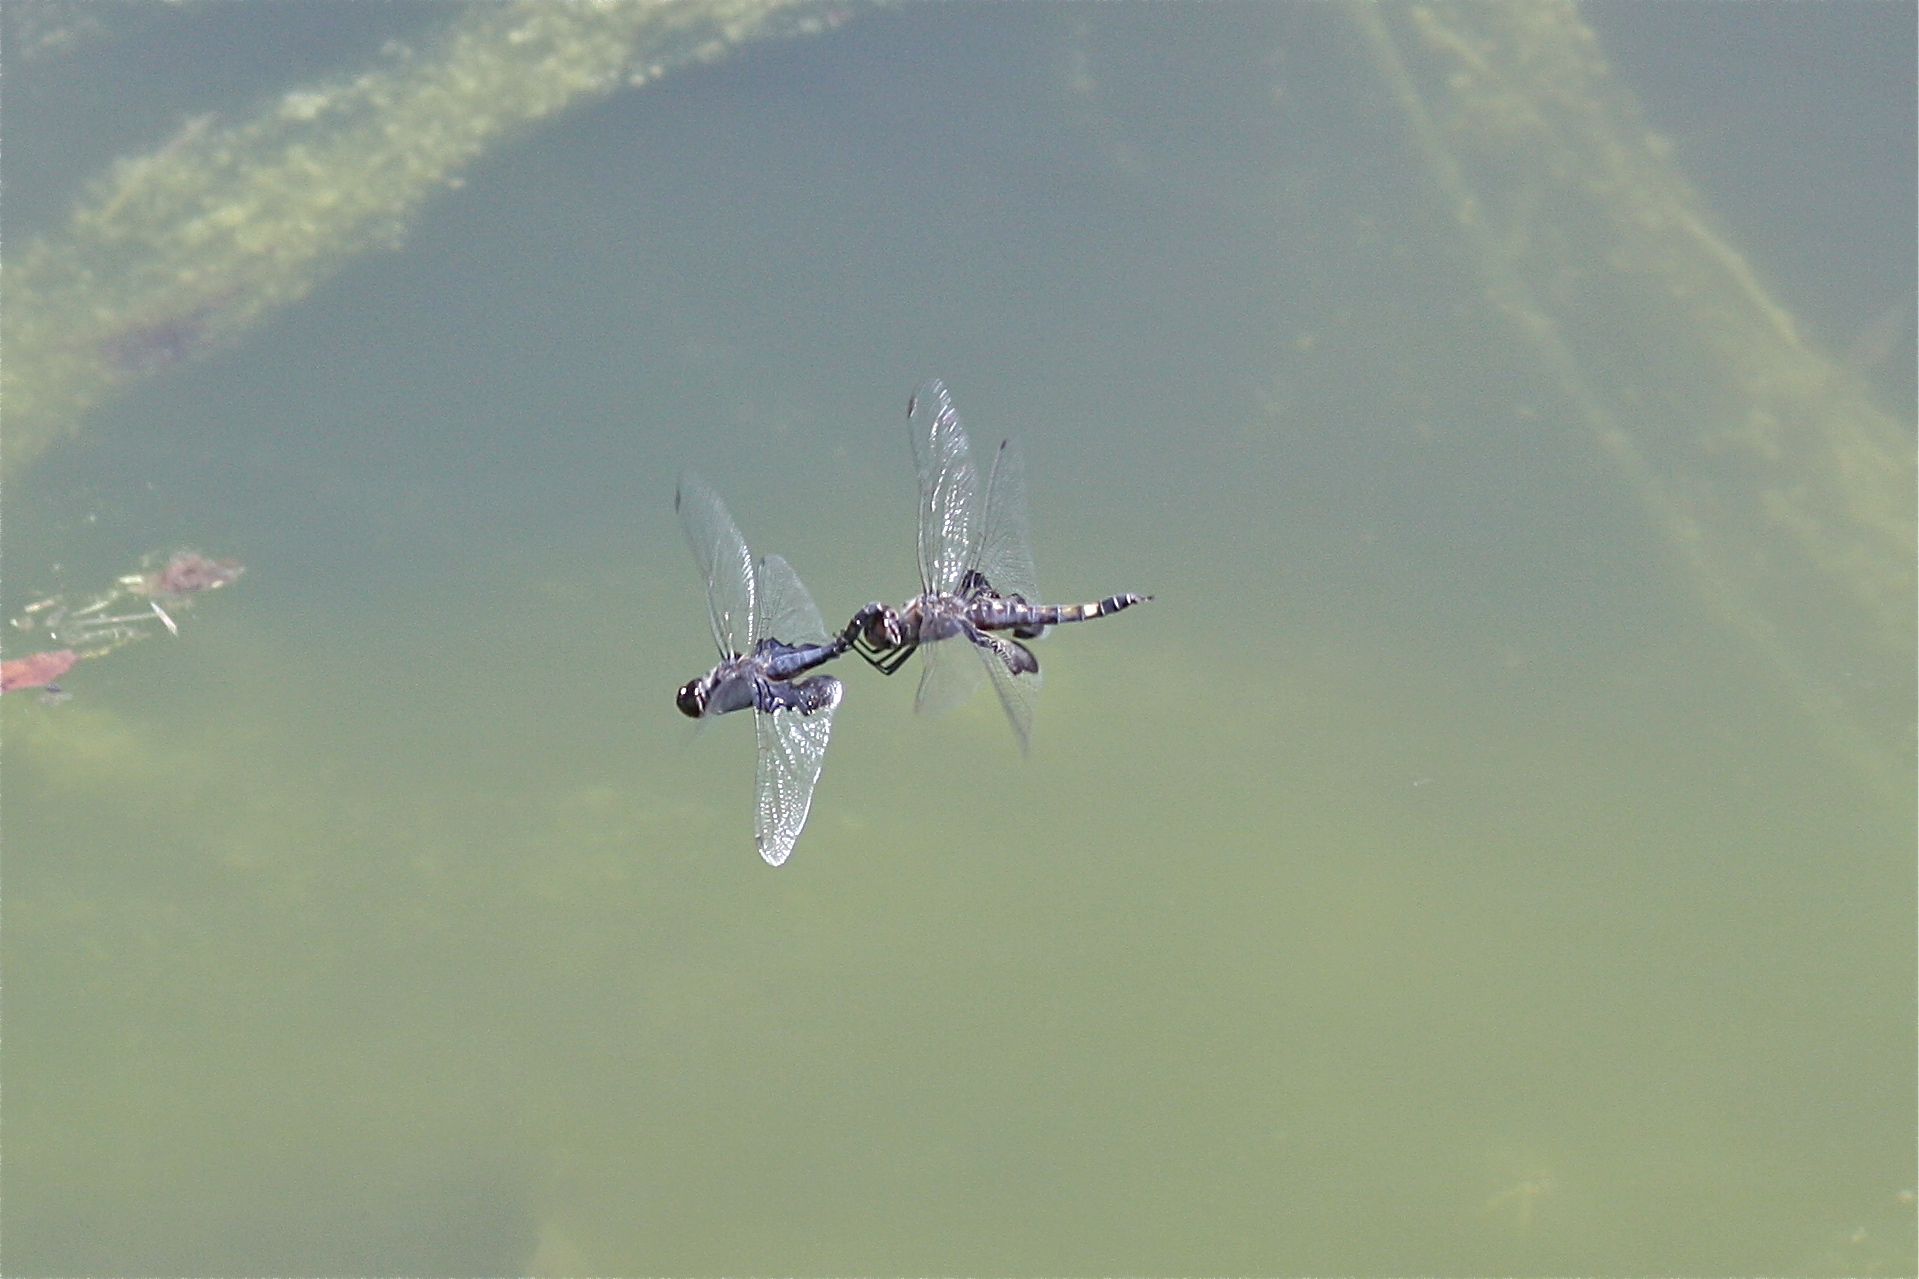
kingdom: Animalia
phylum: Arthropoda
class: Insecta
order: Odonata
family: Libellulidae
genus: Tramea
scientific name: Tramea lacerata
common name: Black saddlebags
